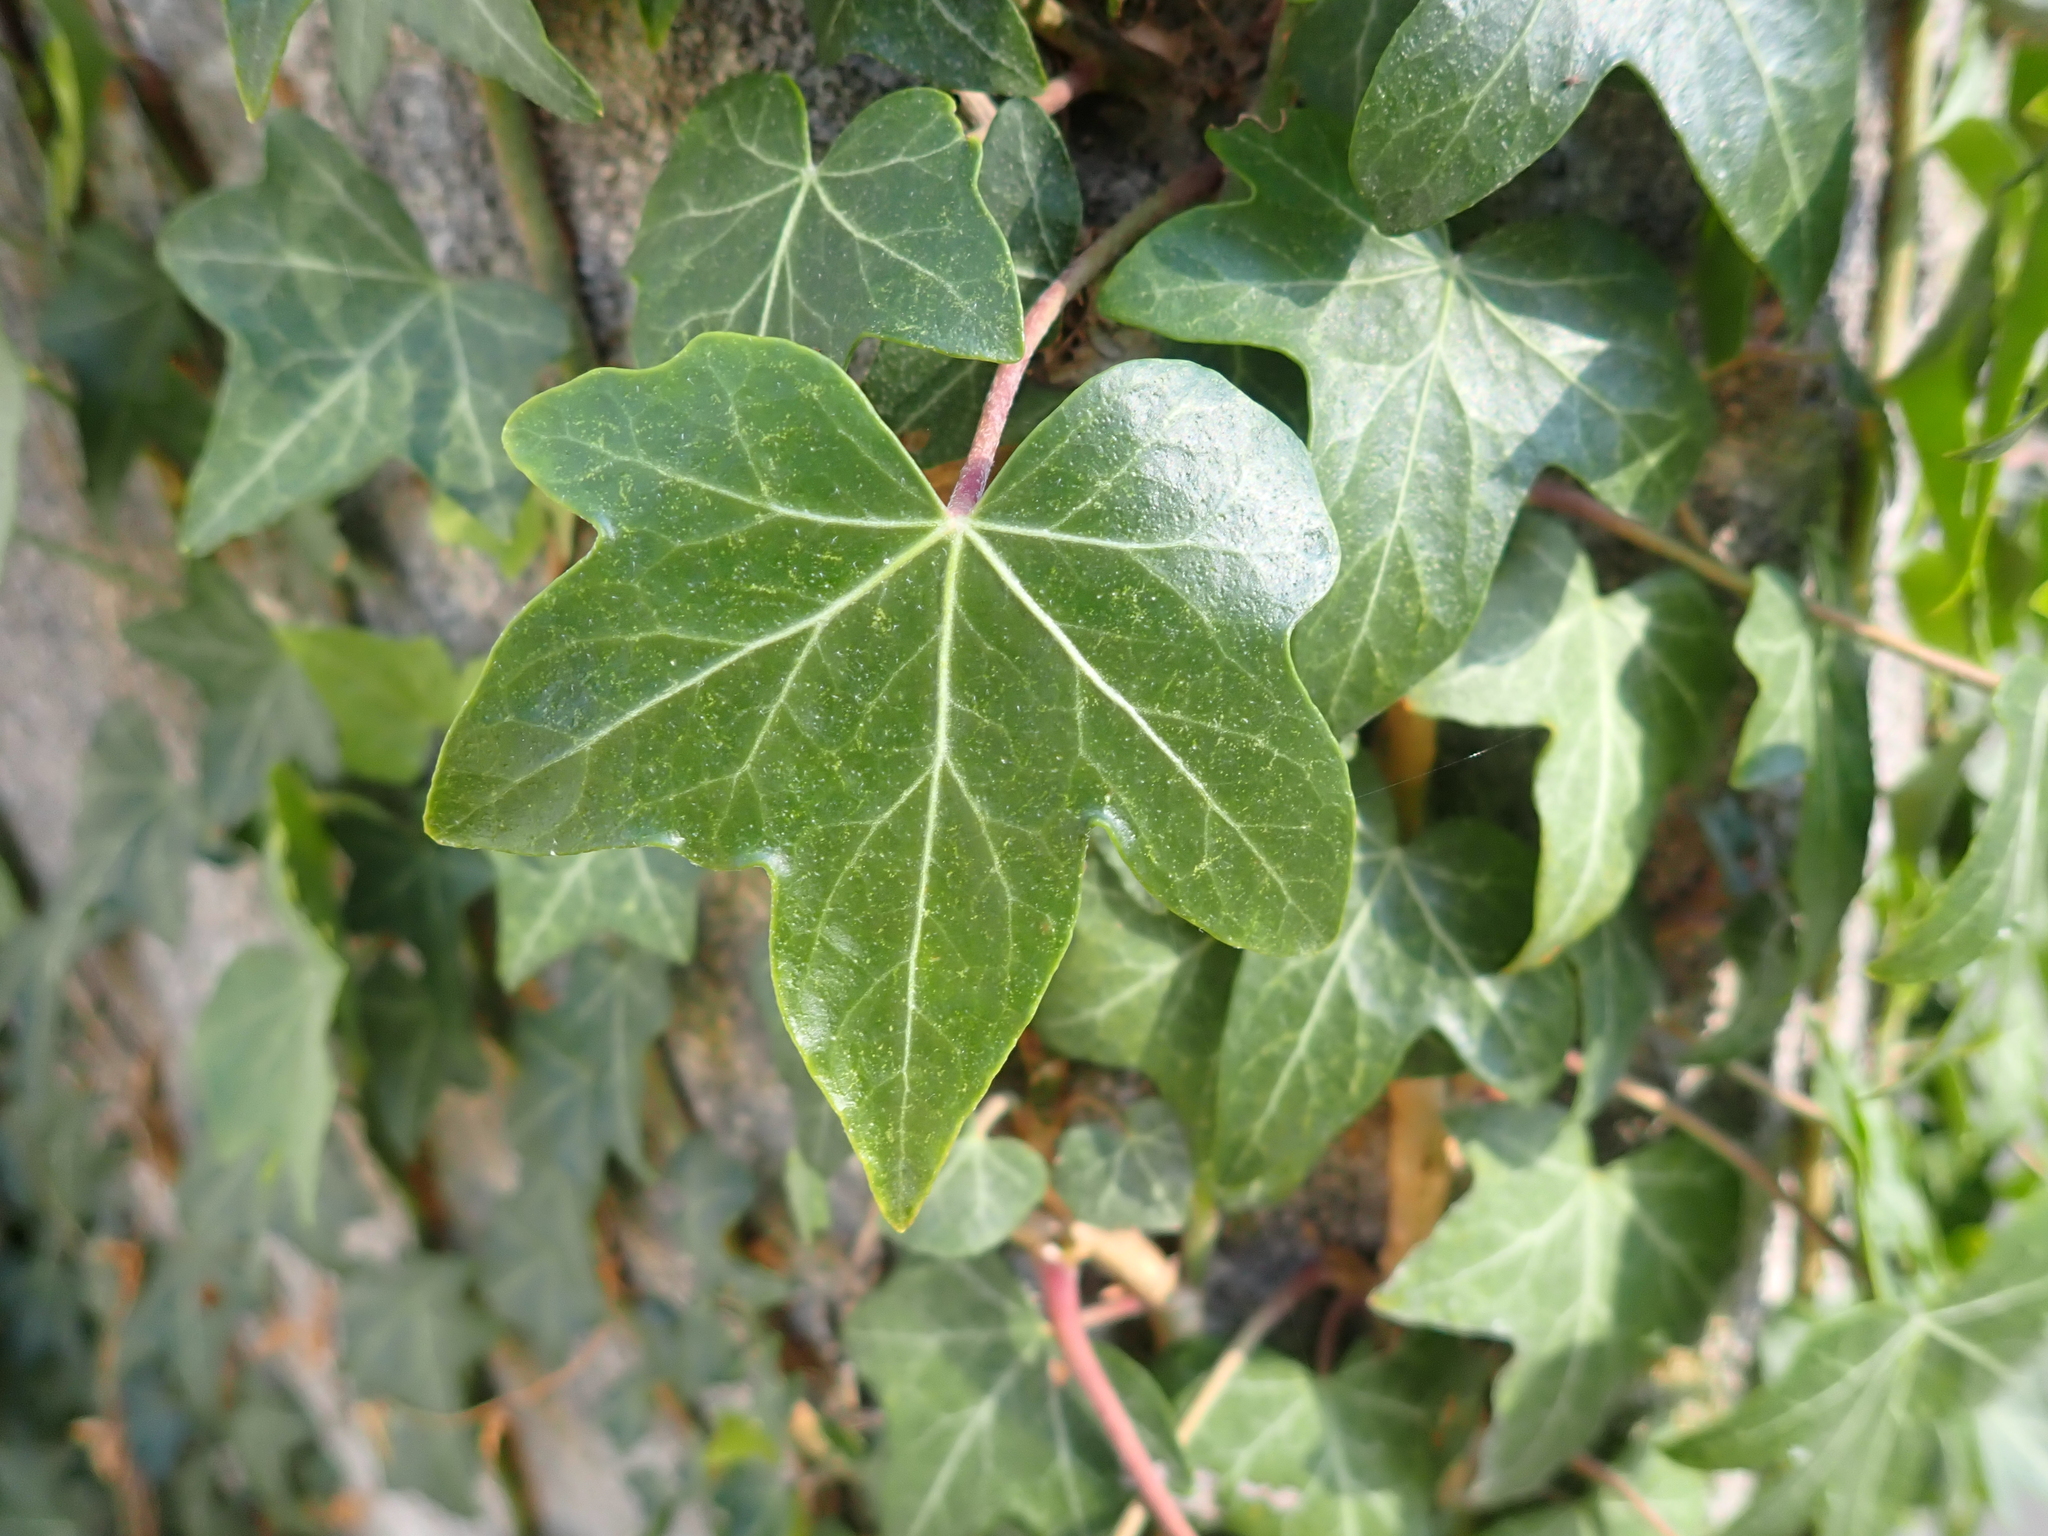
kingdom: Plantae
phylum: Tracheophyta
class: Magnoliopsida
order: Apiales
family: Araliaceae
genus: Hedera
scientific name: Hedera helix
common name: Ivy
